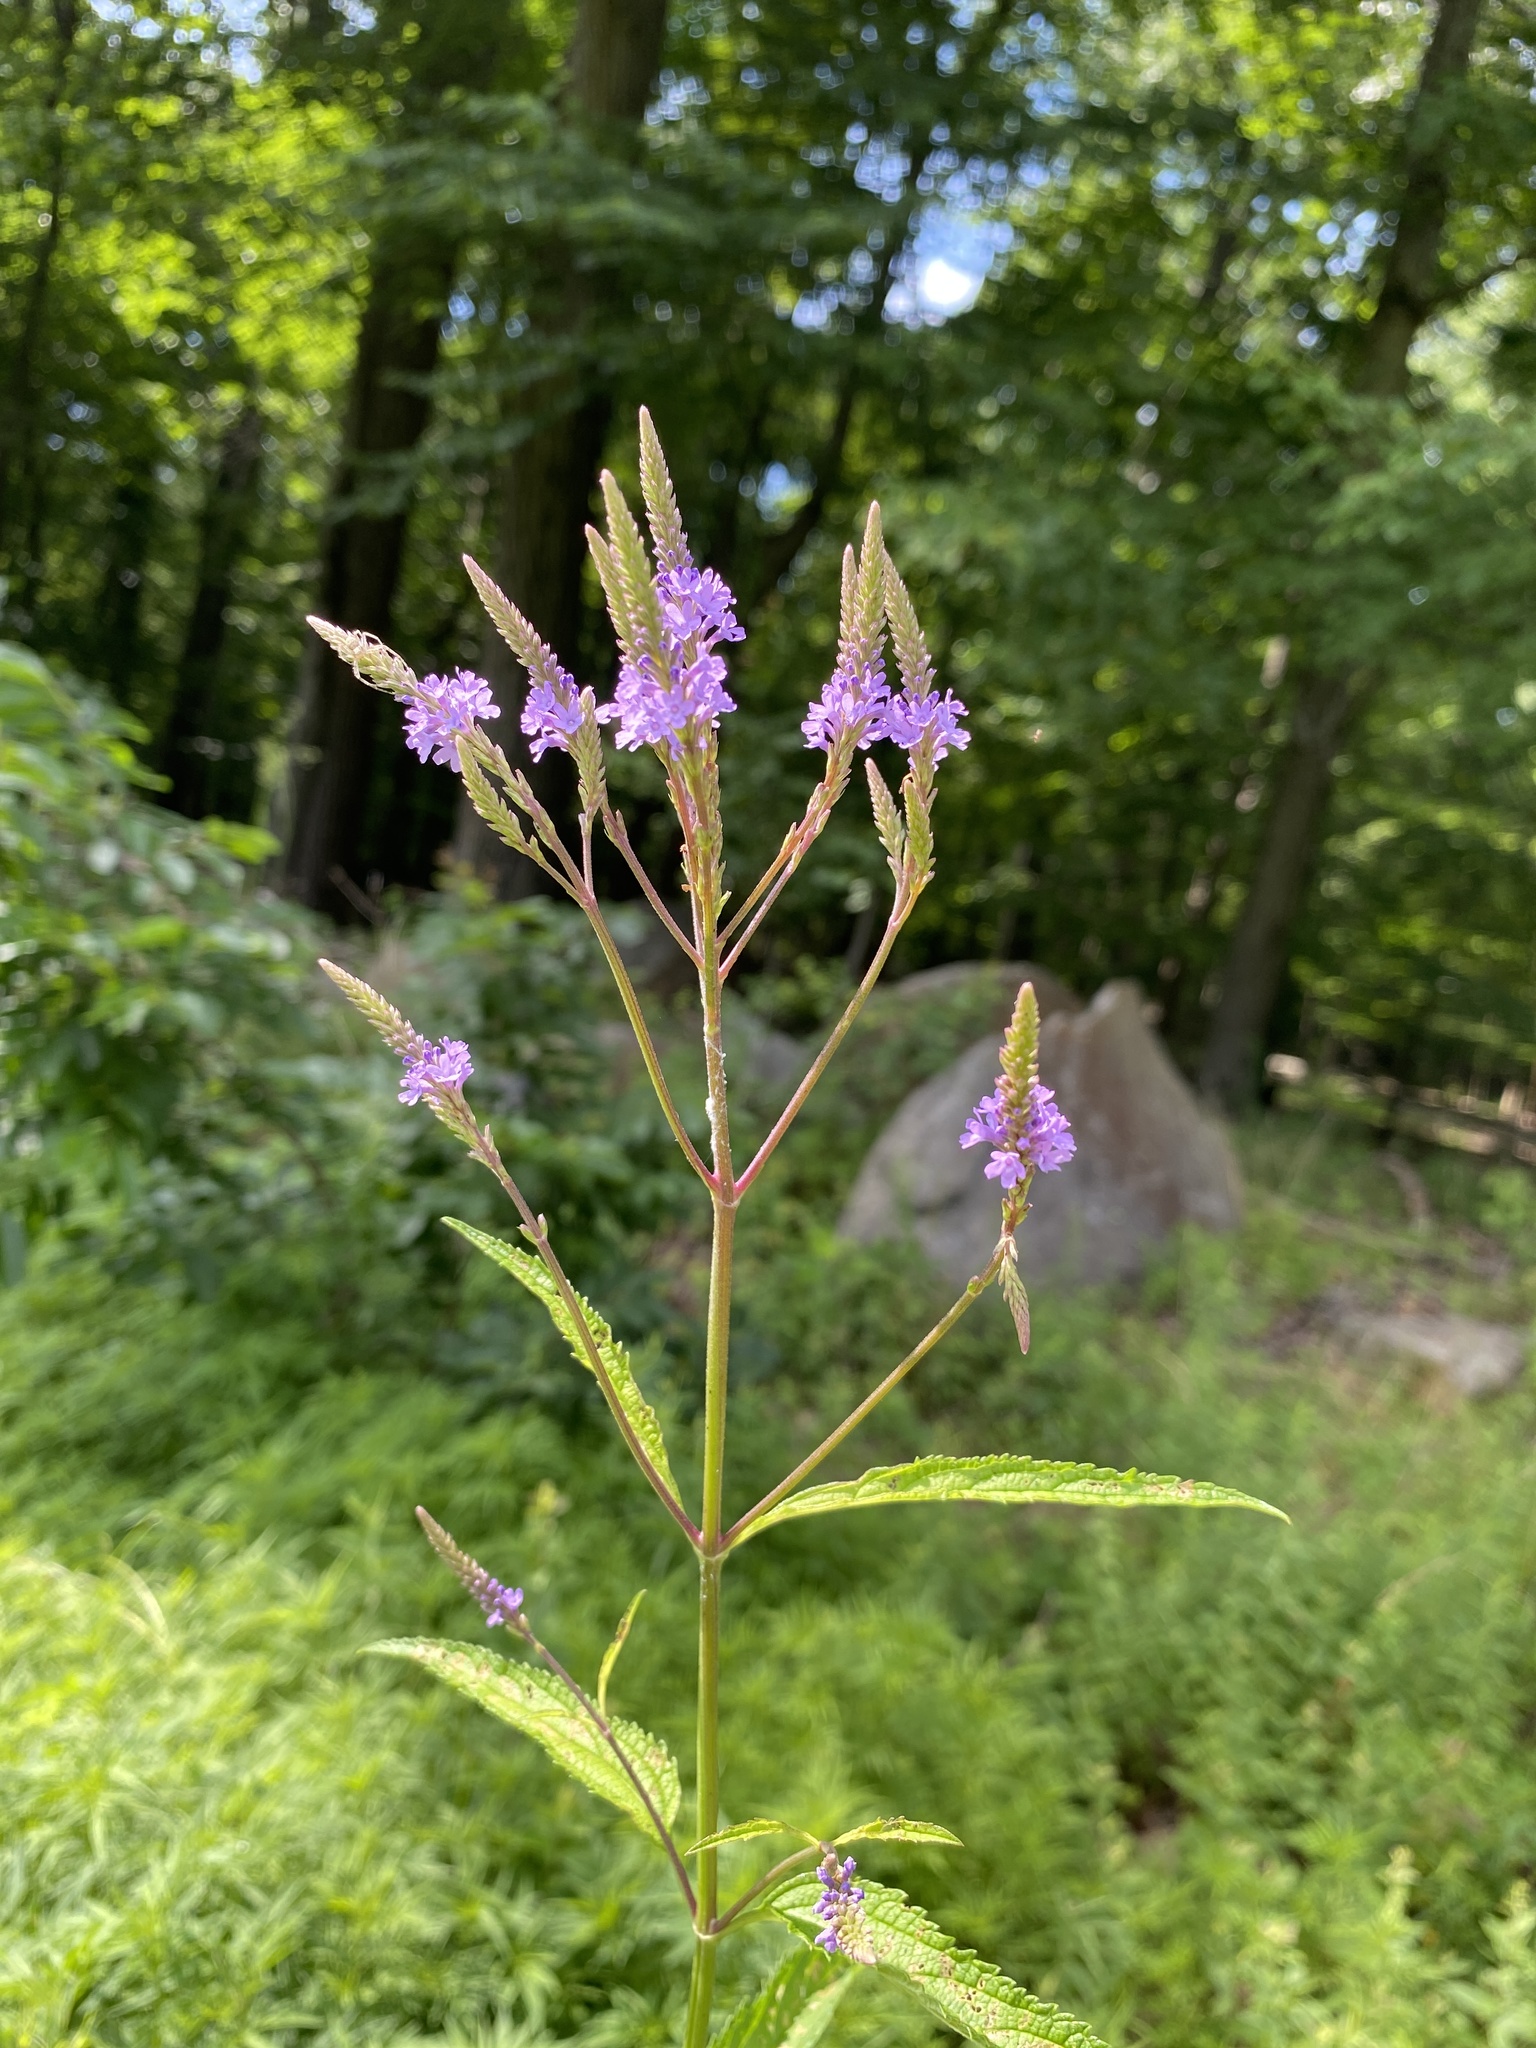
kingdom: Plantae
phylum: Tracheophyta
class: Magnoliopsida
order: Lamiales
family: Verbenaceae
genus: Verbena
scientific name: Verbena hastata
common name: American blue vervain
